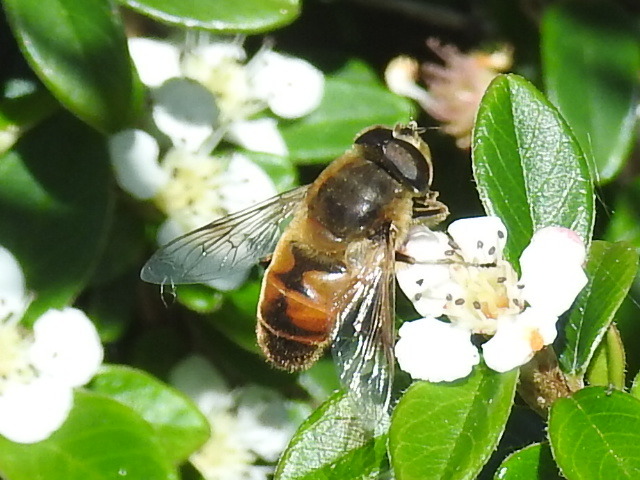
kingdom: Animalia
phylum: Arthropoda
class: Insecta
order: Diptera
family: Syrphidae
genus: Eristalis
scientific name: Eristalis tenax
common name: Drone fly
